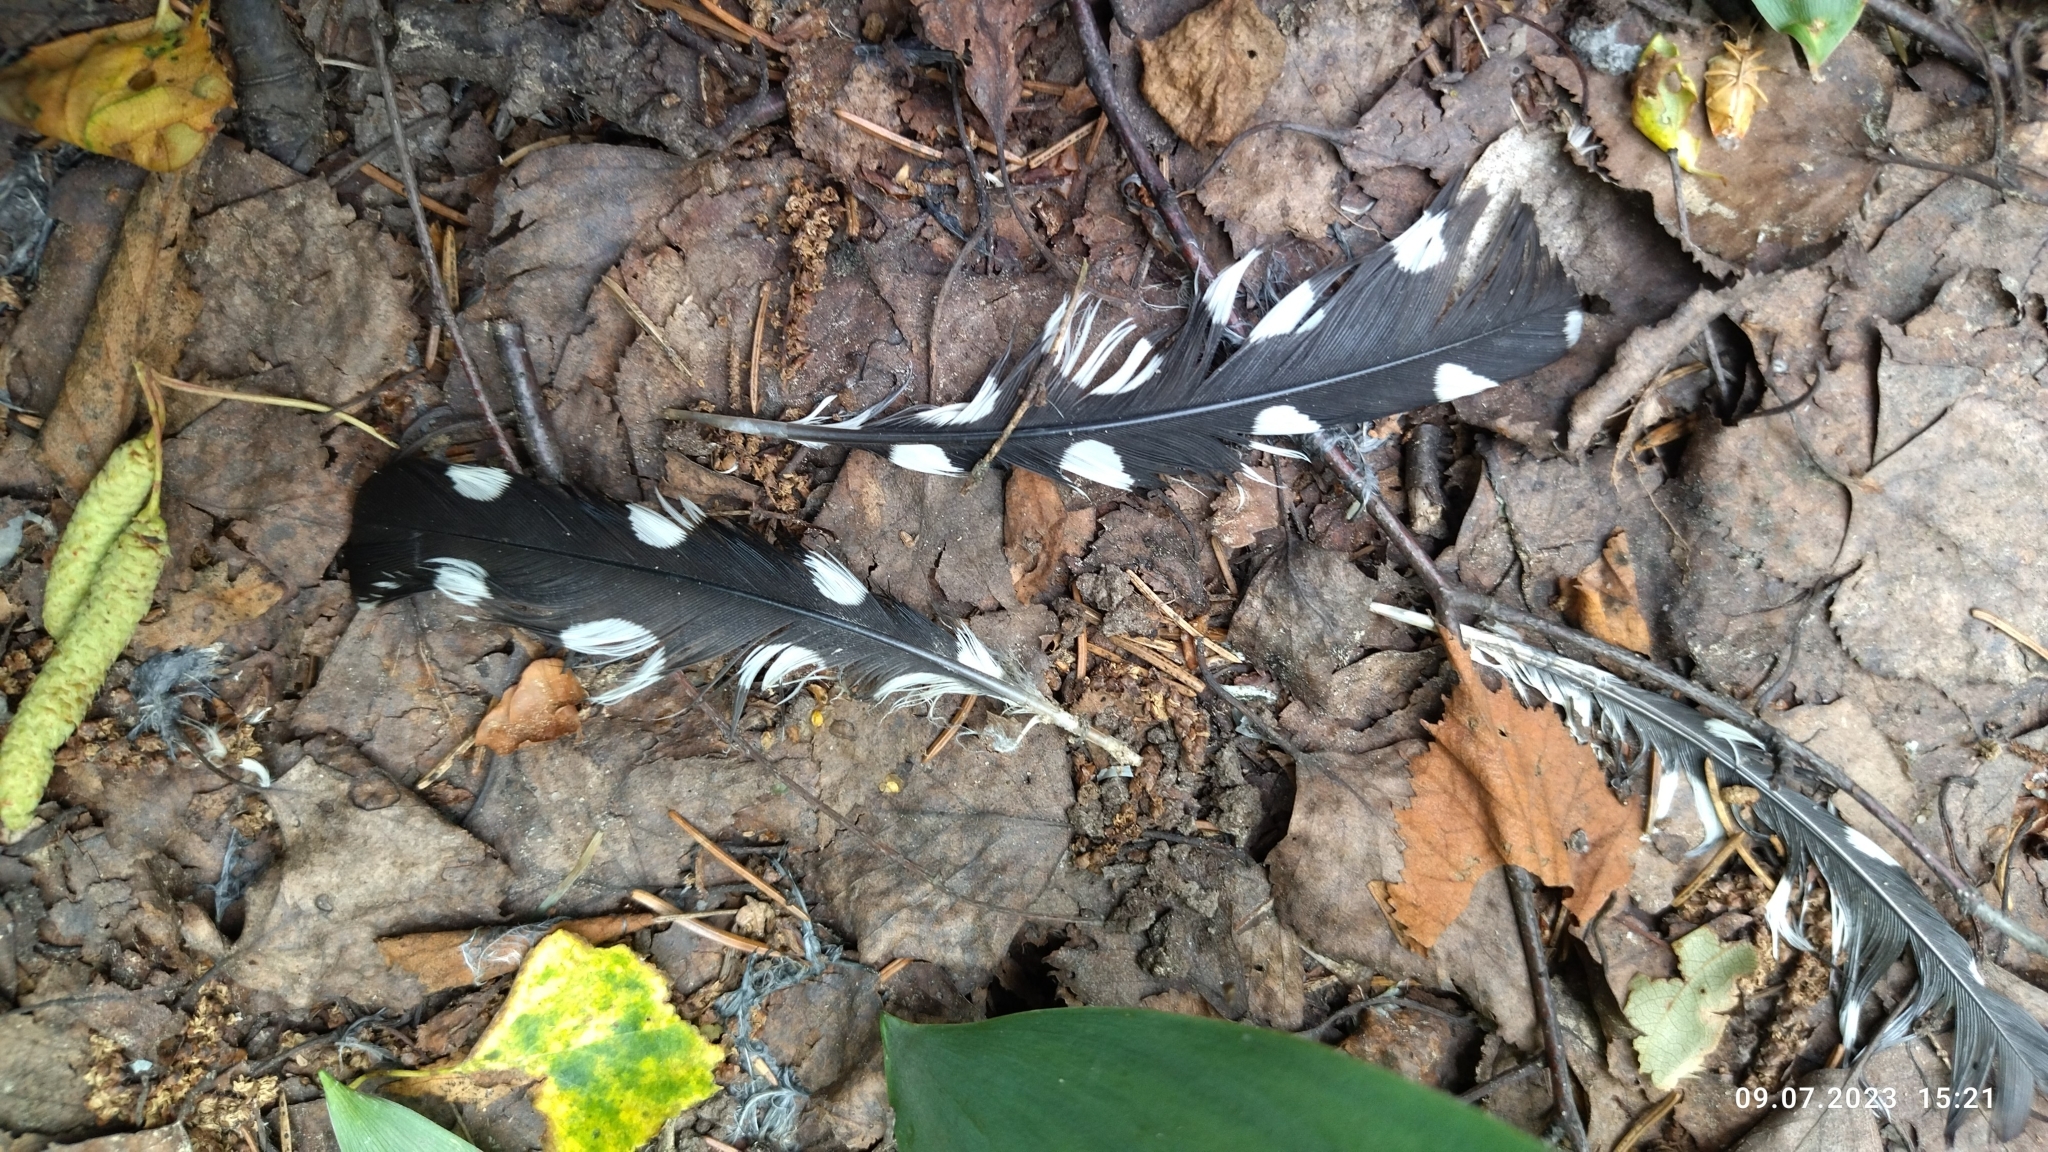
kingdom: Animalia
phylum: Chordata
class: Aves
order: Piciformes
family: Picidae
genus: Dendrocopos
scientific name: Dendrocopos major
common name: Great spotted woodpecker
